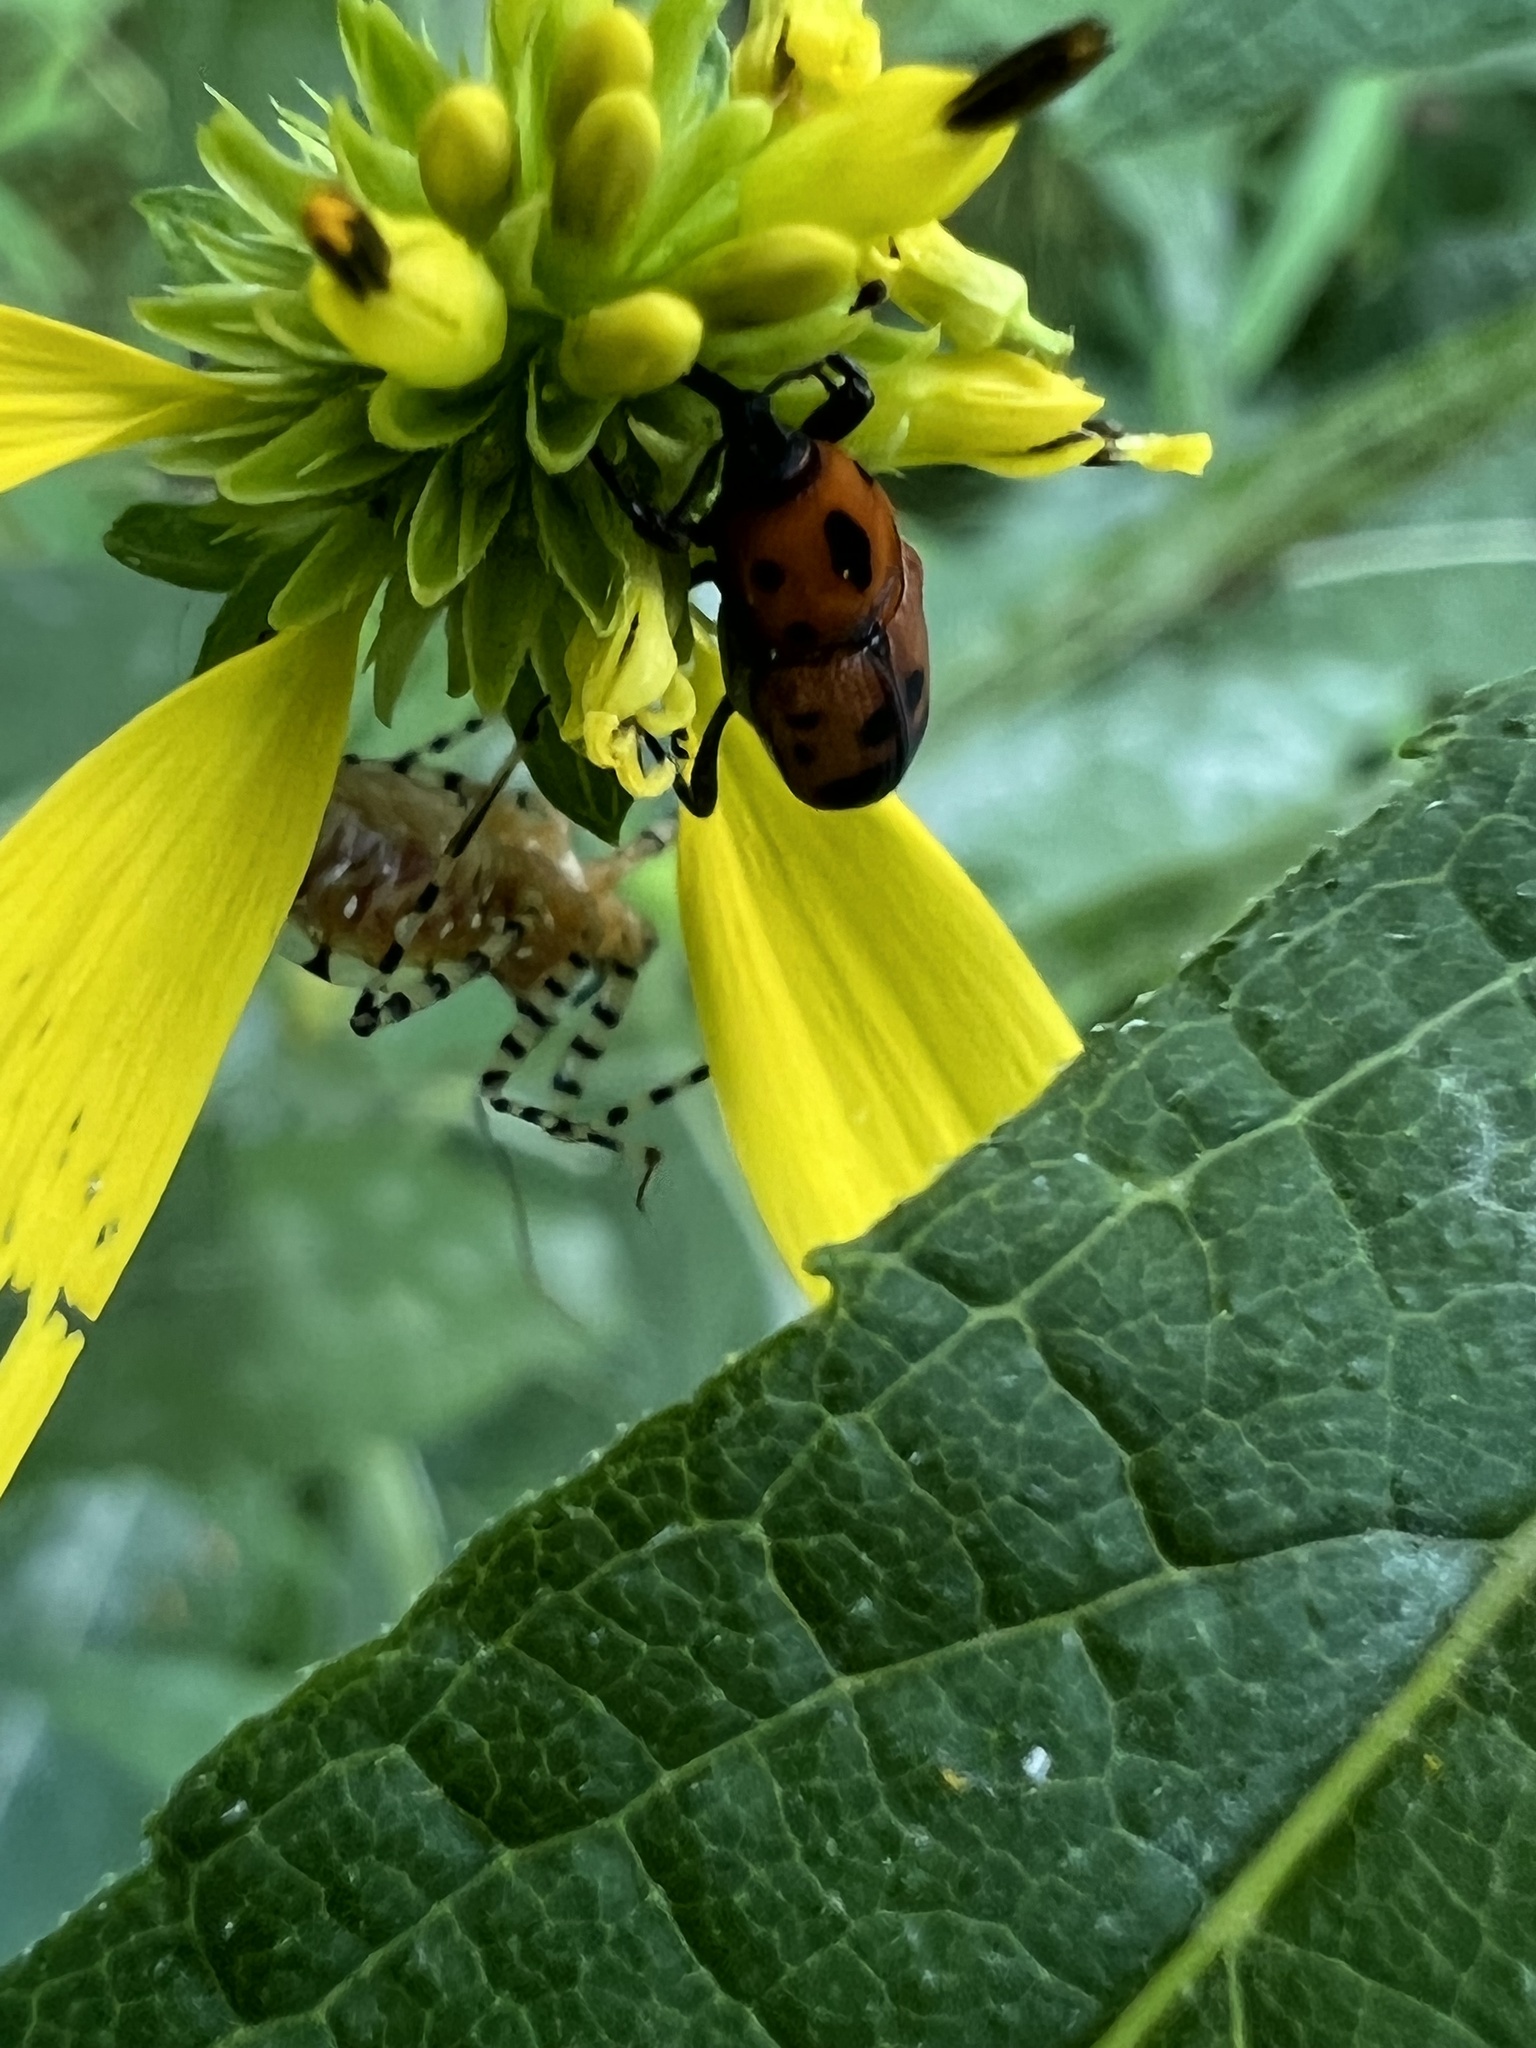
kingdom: Animalia
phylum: Arthropoda
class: Insecta
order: Coleoptera
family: Dryophthoridae
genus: Rhodobaenus
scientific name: Rhodobaenus quinquepunctatus
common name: Cocklebur weevil
